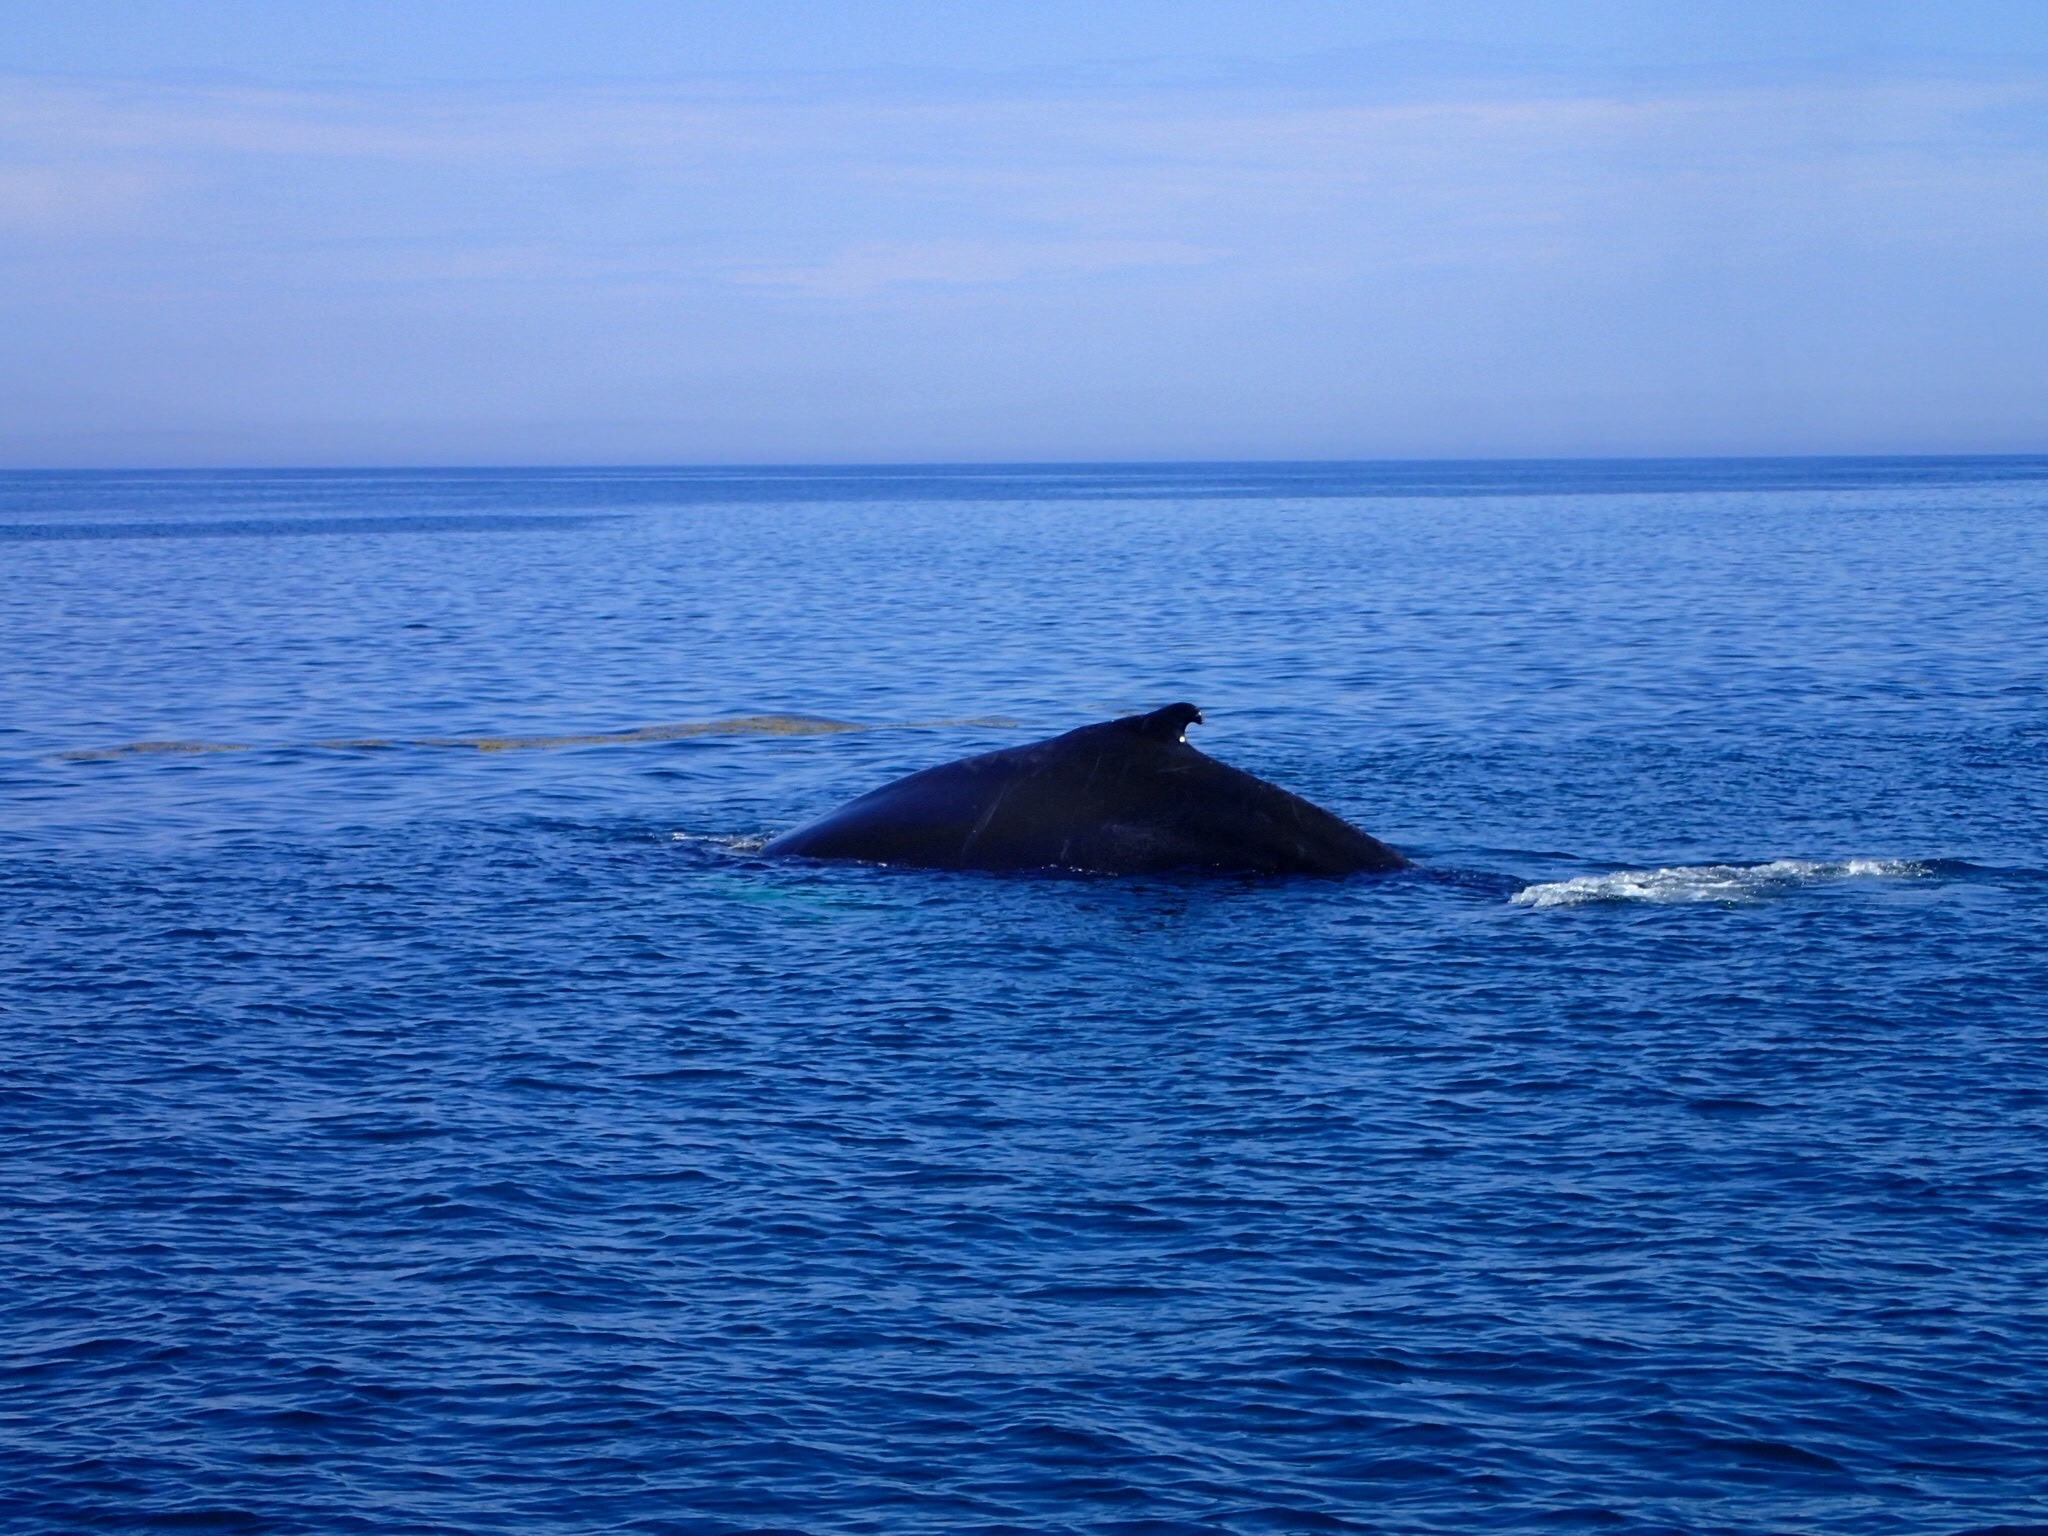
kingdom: Animalia
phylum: Chordata
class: Mammalia
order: Cetacea
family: Balaenopteridae
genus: Megaptera
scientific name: Megaptera novaeangliae
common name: Humpback whale
